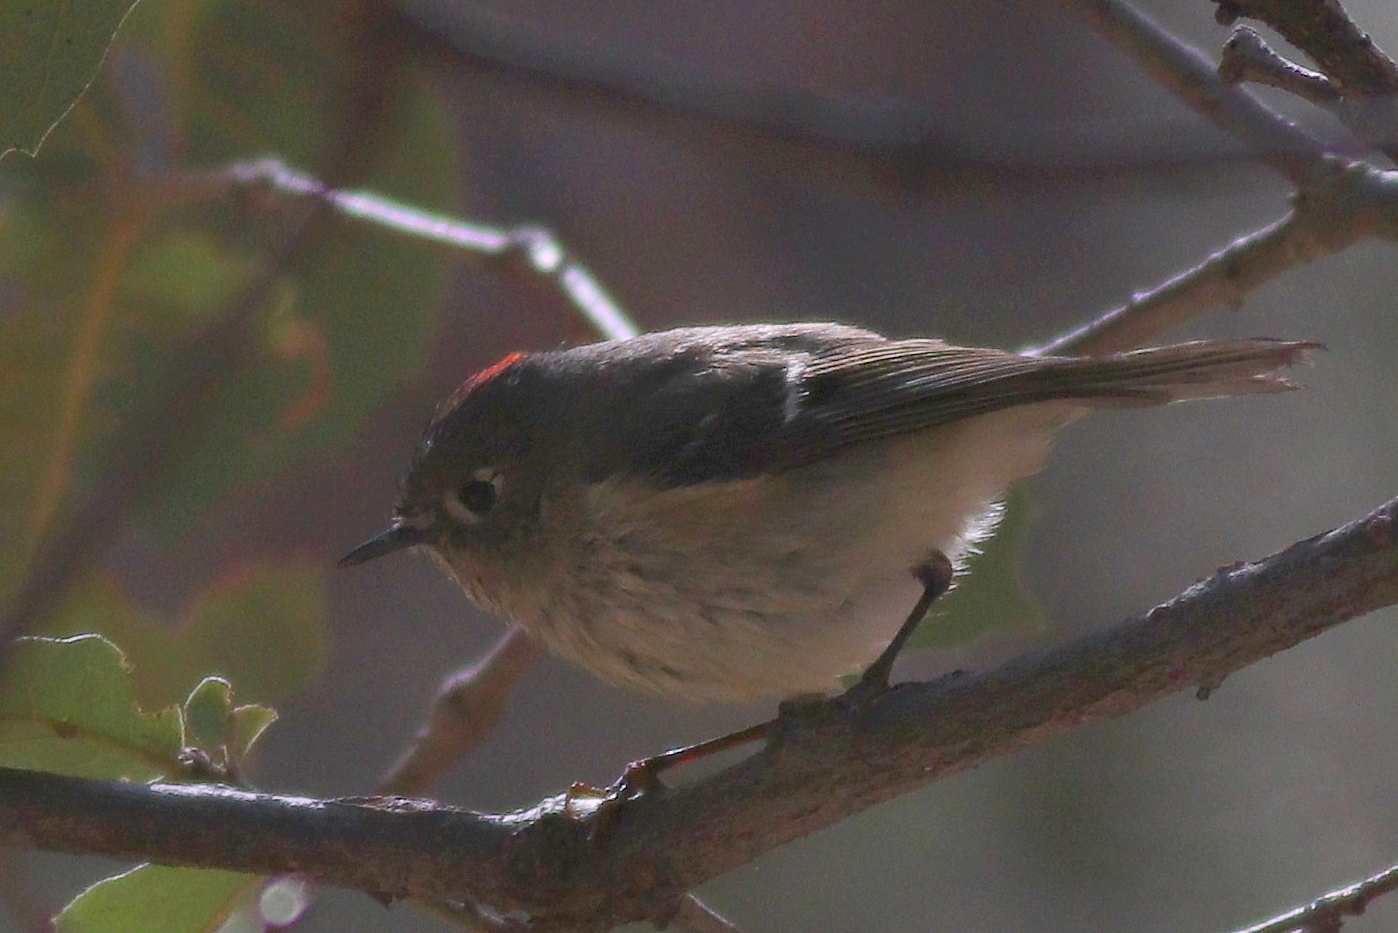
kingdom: Animalia
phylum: Chordata
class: Aves
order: Passeriformes
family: Regulidae
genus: Regulus
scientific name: Regulus calendula
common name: Ruby-crowned kinglet
